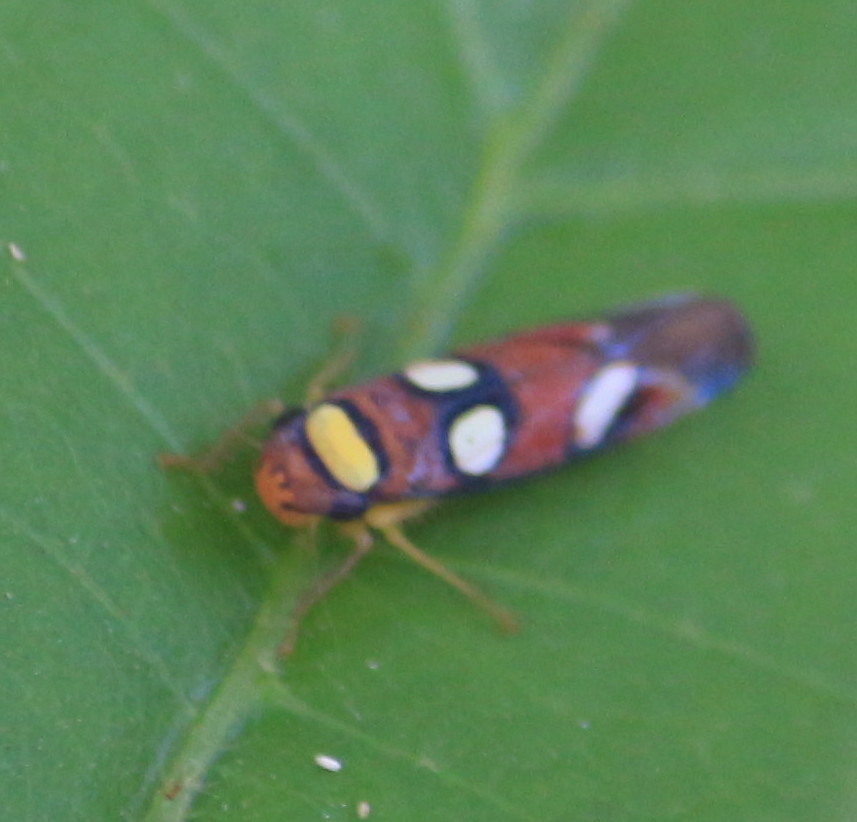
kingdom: Animalia
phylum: Arthropoda
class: Insecta
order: Hemiptera
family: Cicadellidae
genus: Erythrogonia
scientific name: Erythrogonia areolata
